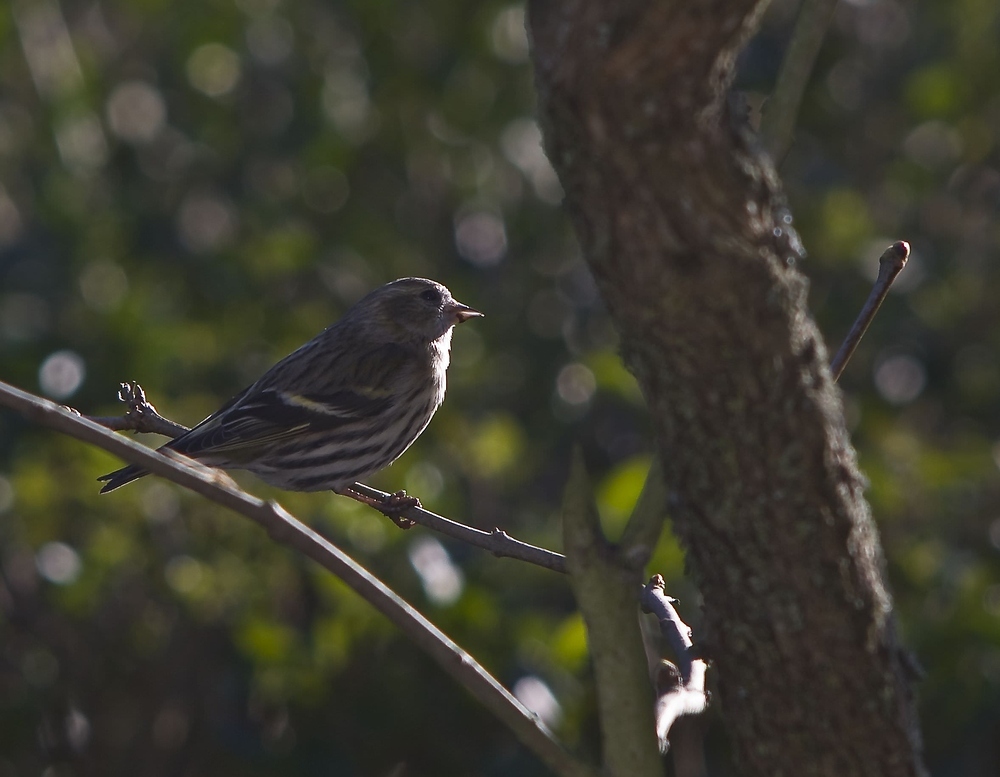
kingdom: Animalia
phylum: Chordata
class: Aves
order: Passeriformes
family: Fringillidae
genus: Spinus
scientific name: Spinus spinus
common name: Eurasian siskin
